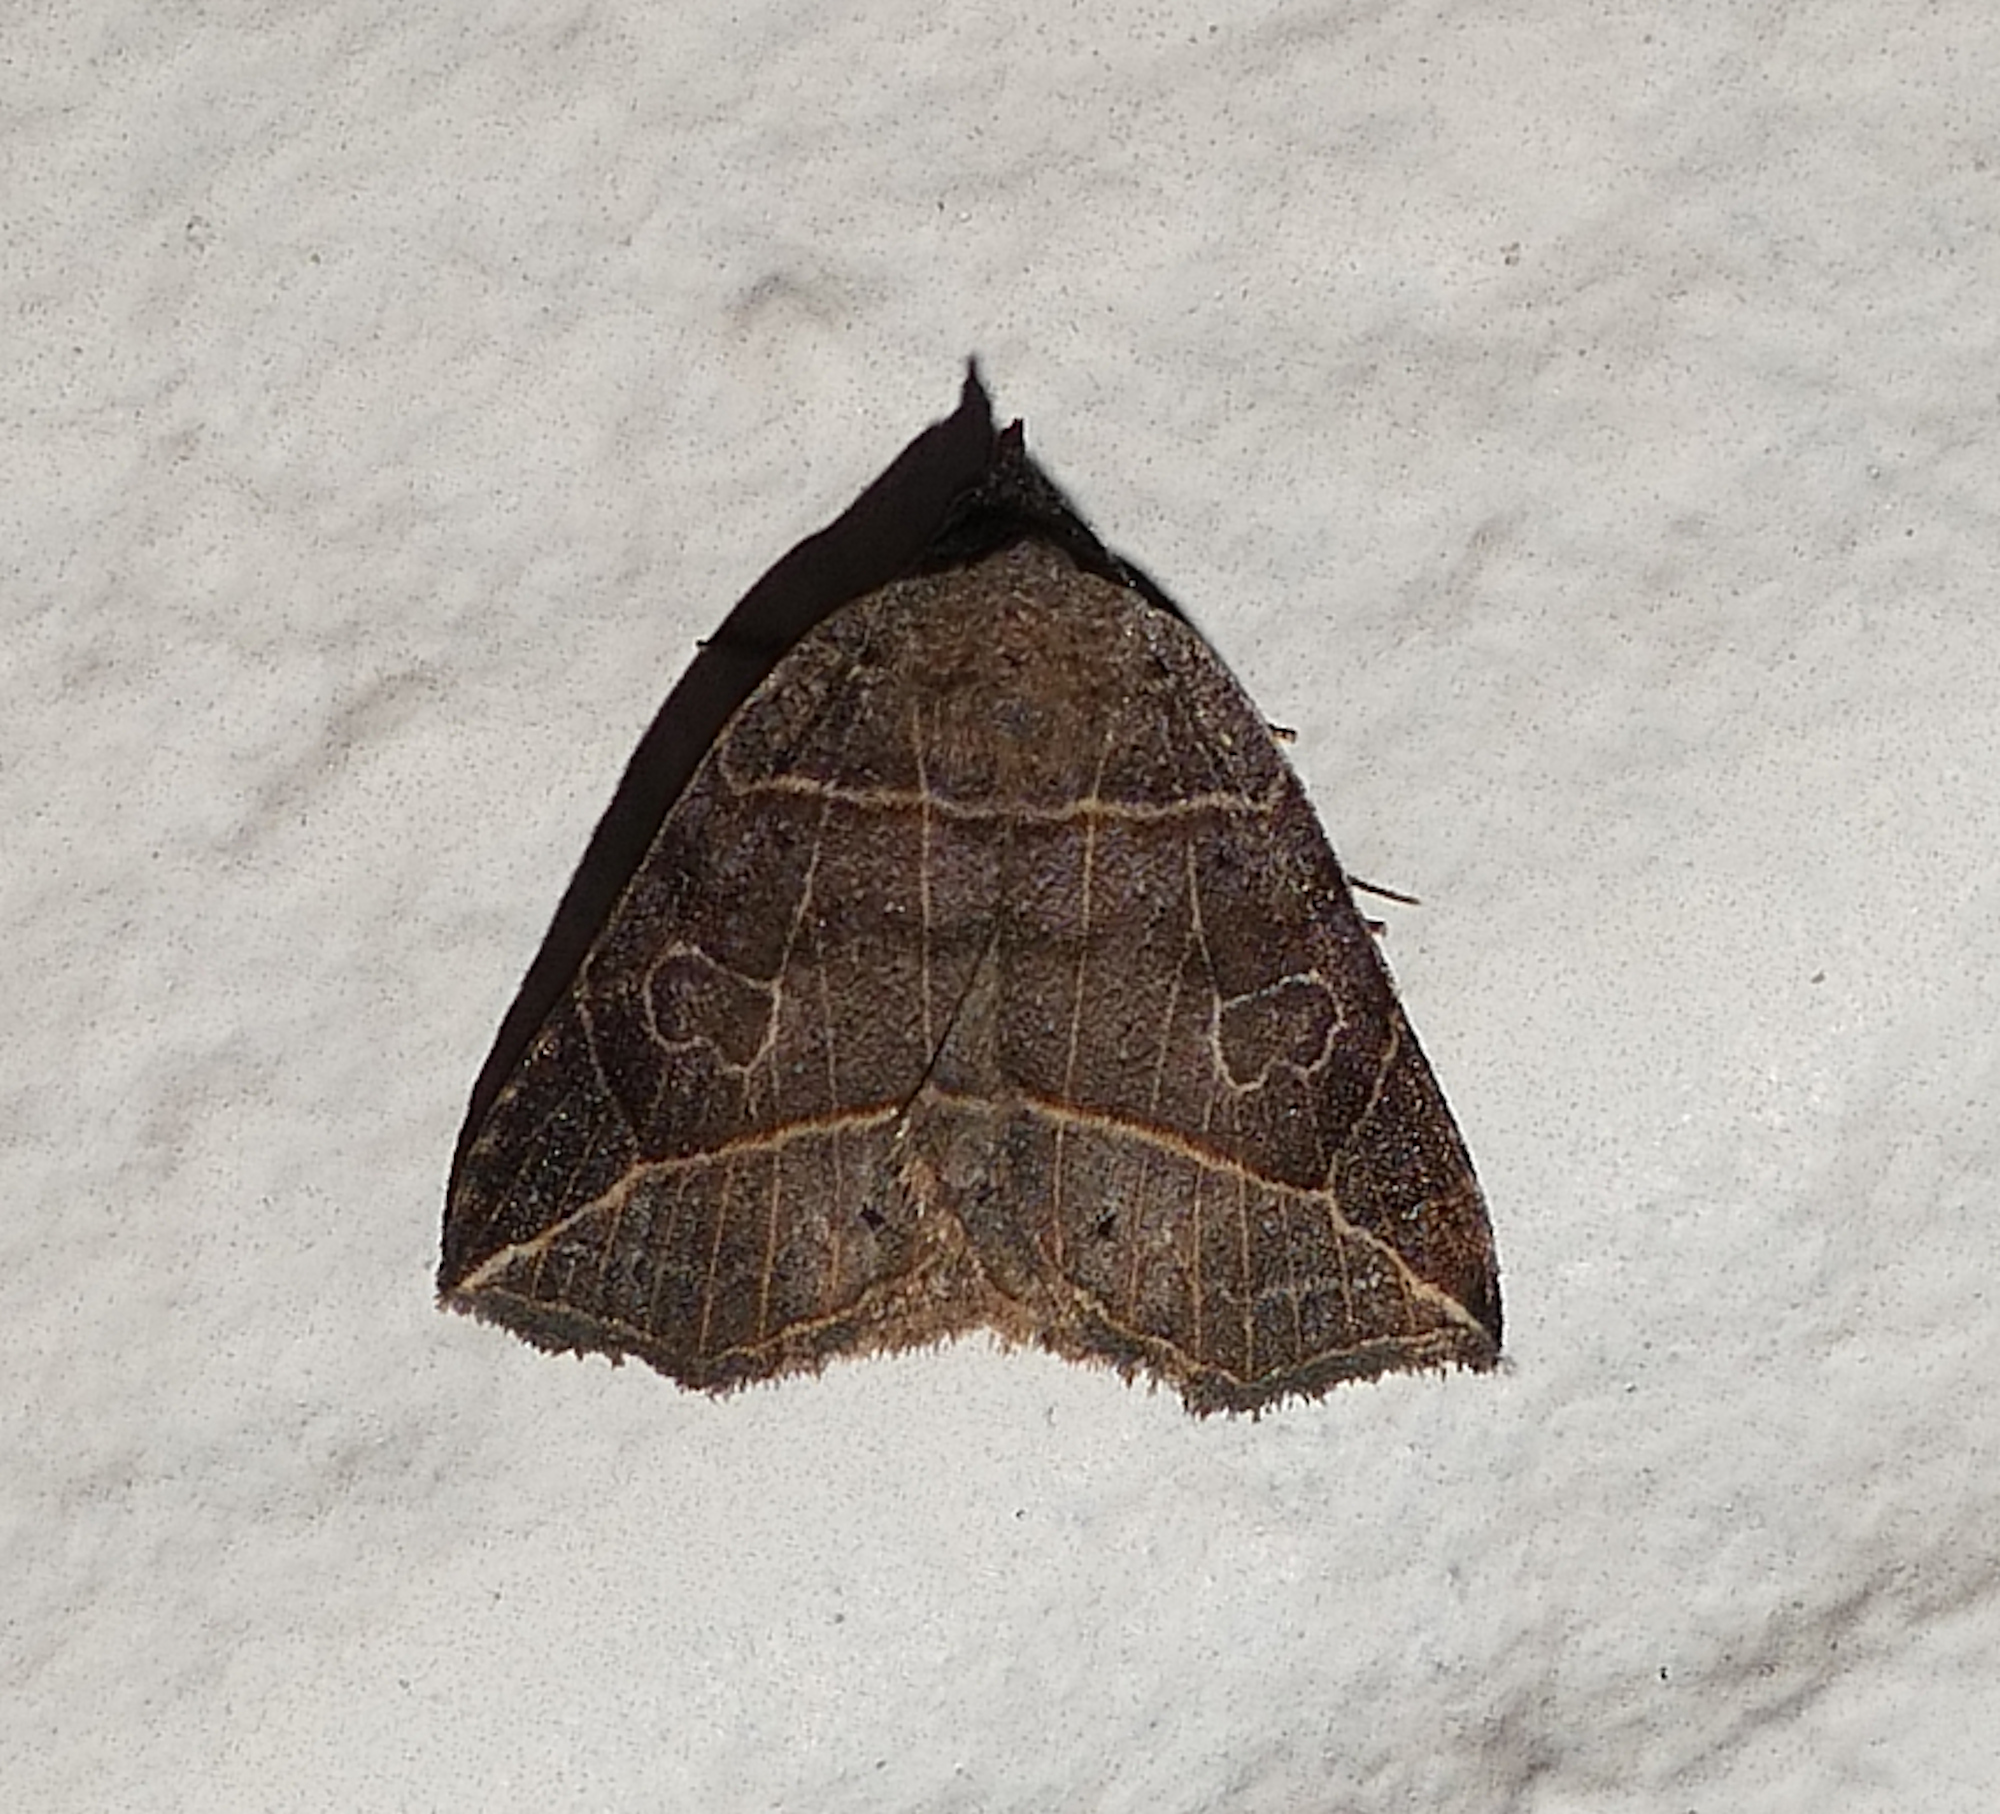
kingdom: Animalia
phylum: Arthropoda
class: Insecta
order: Lepidoptera
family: Erebidae
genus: Isogona
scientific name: Isogona tenuis
